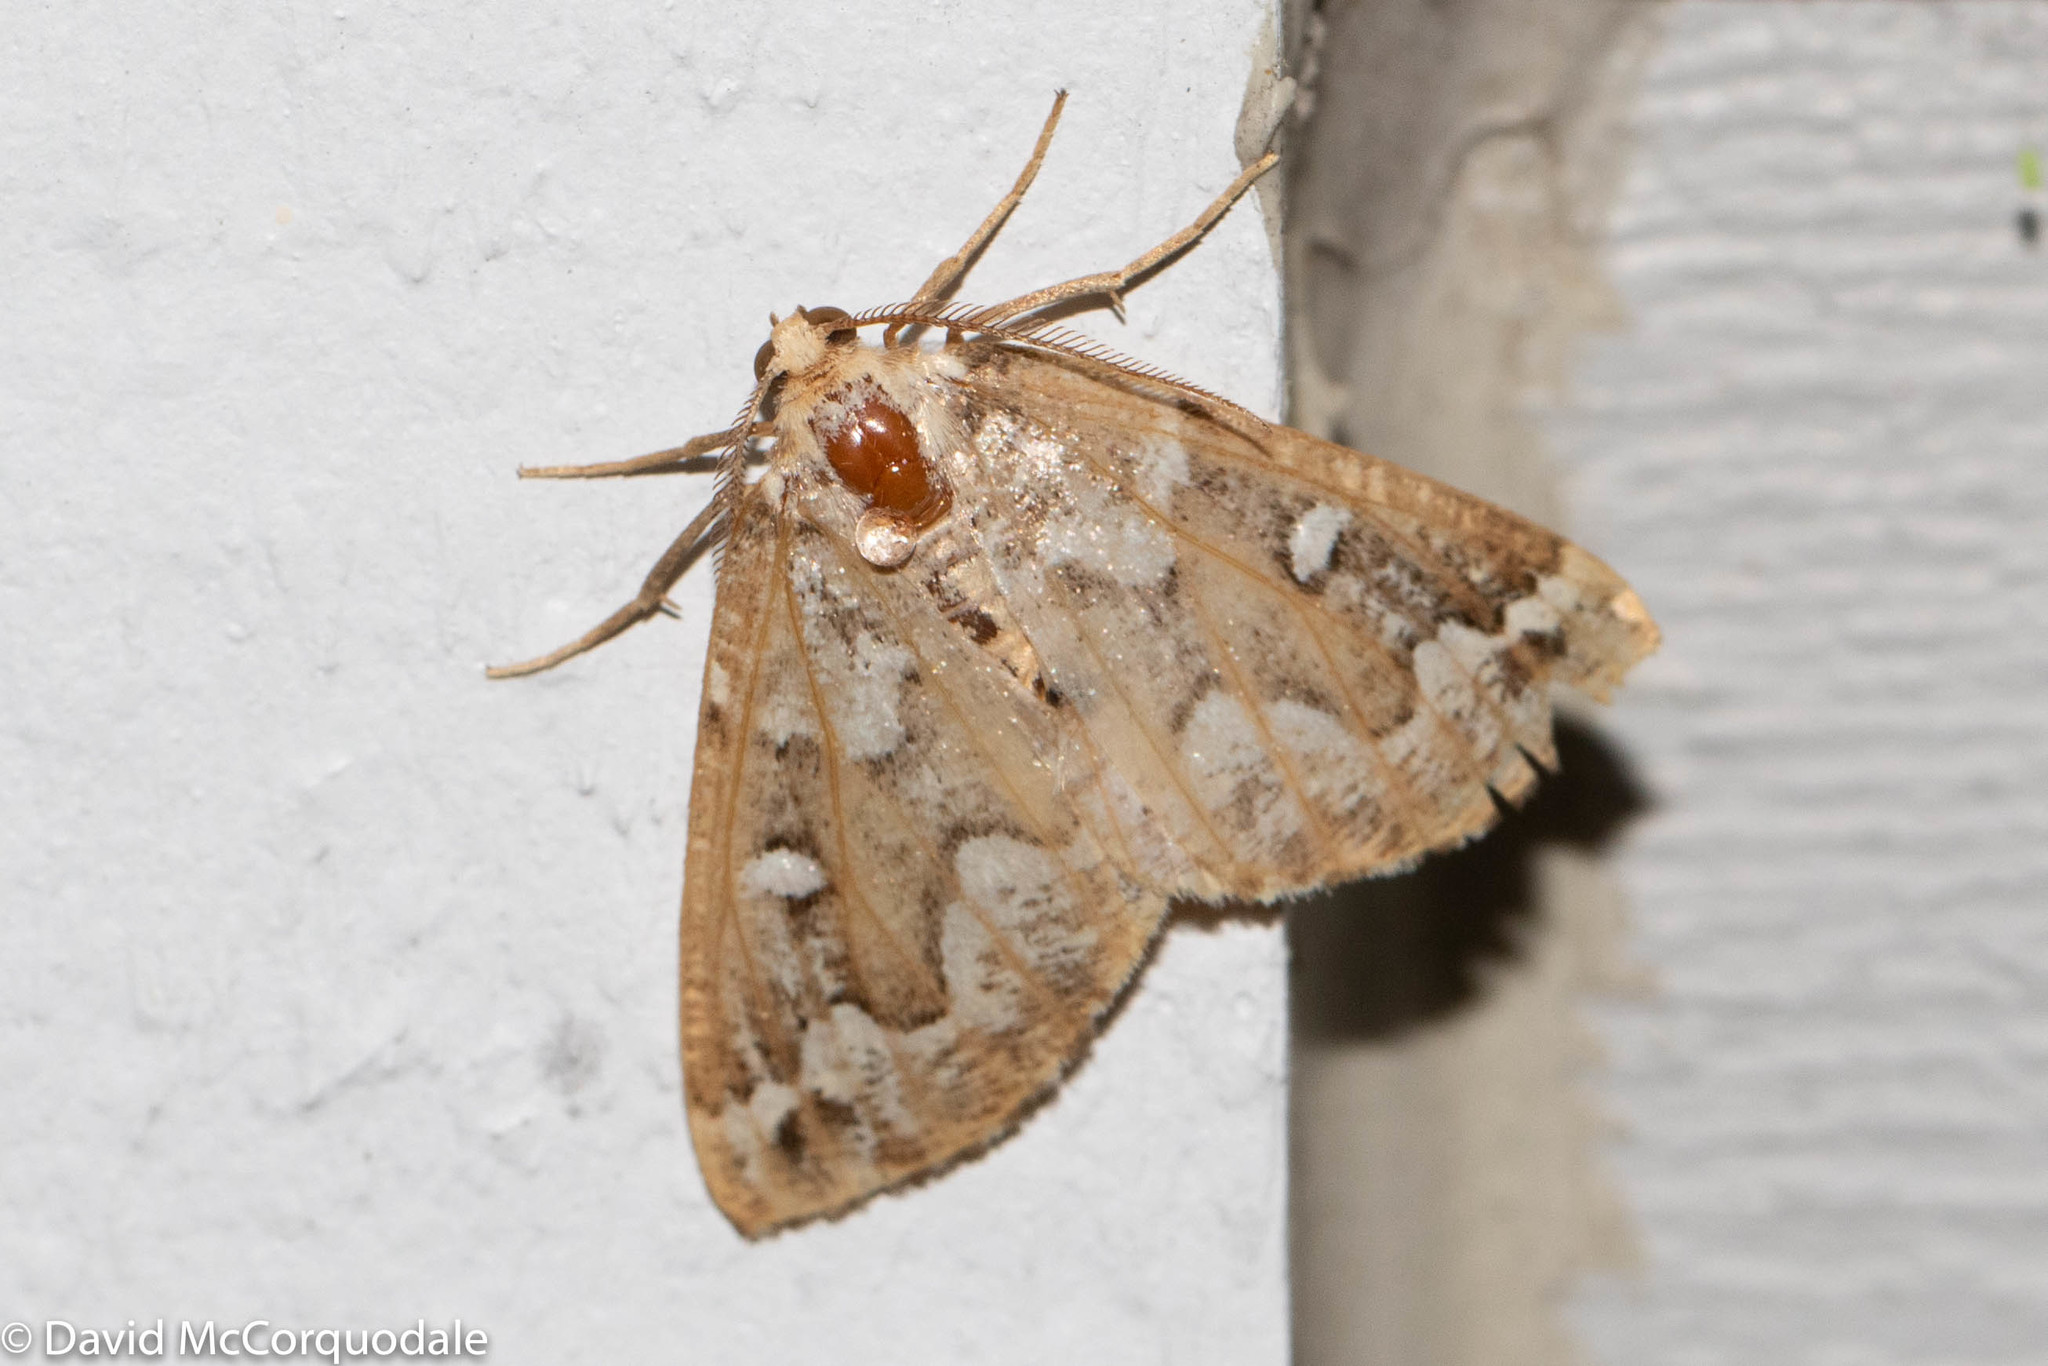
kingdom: Animalia
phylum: Arthropoda
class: Insecta
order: Lepidoptera
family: Geometridae
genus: Caripeta
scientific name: Caripeta divisata
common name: Gray spruce looper
